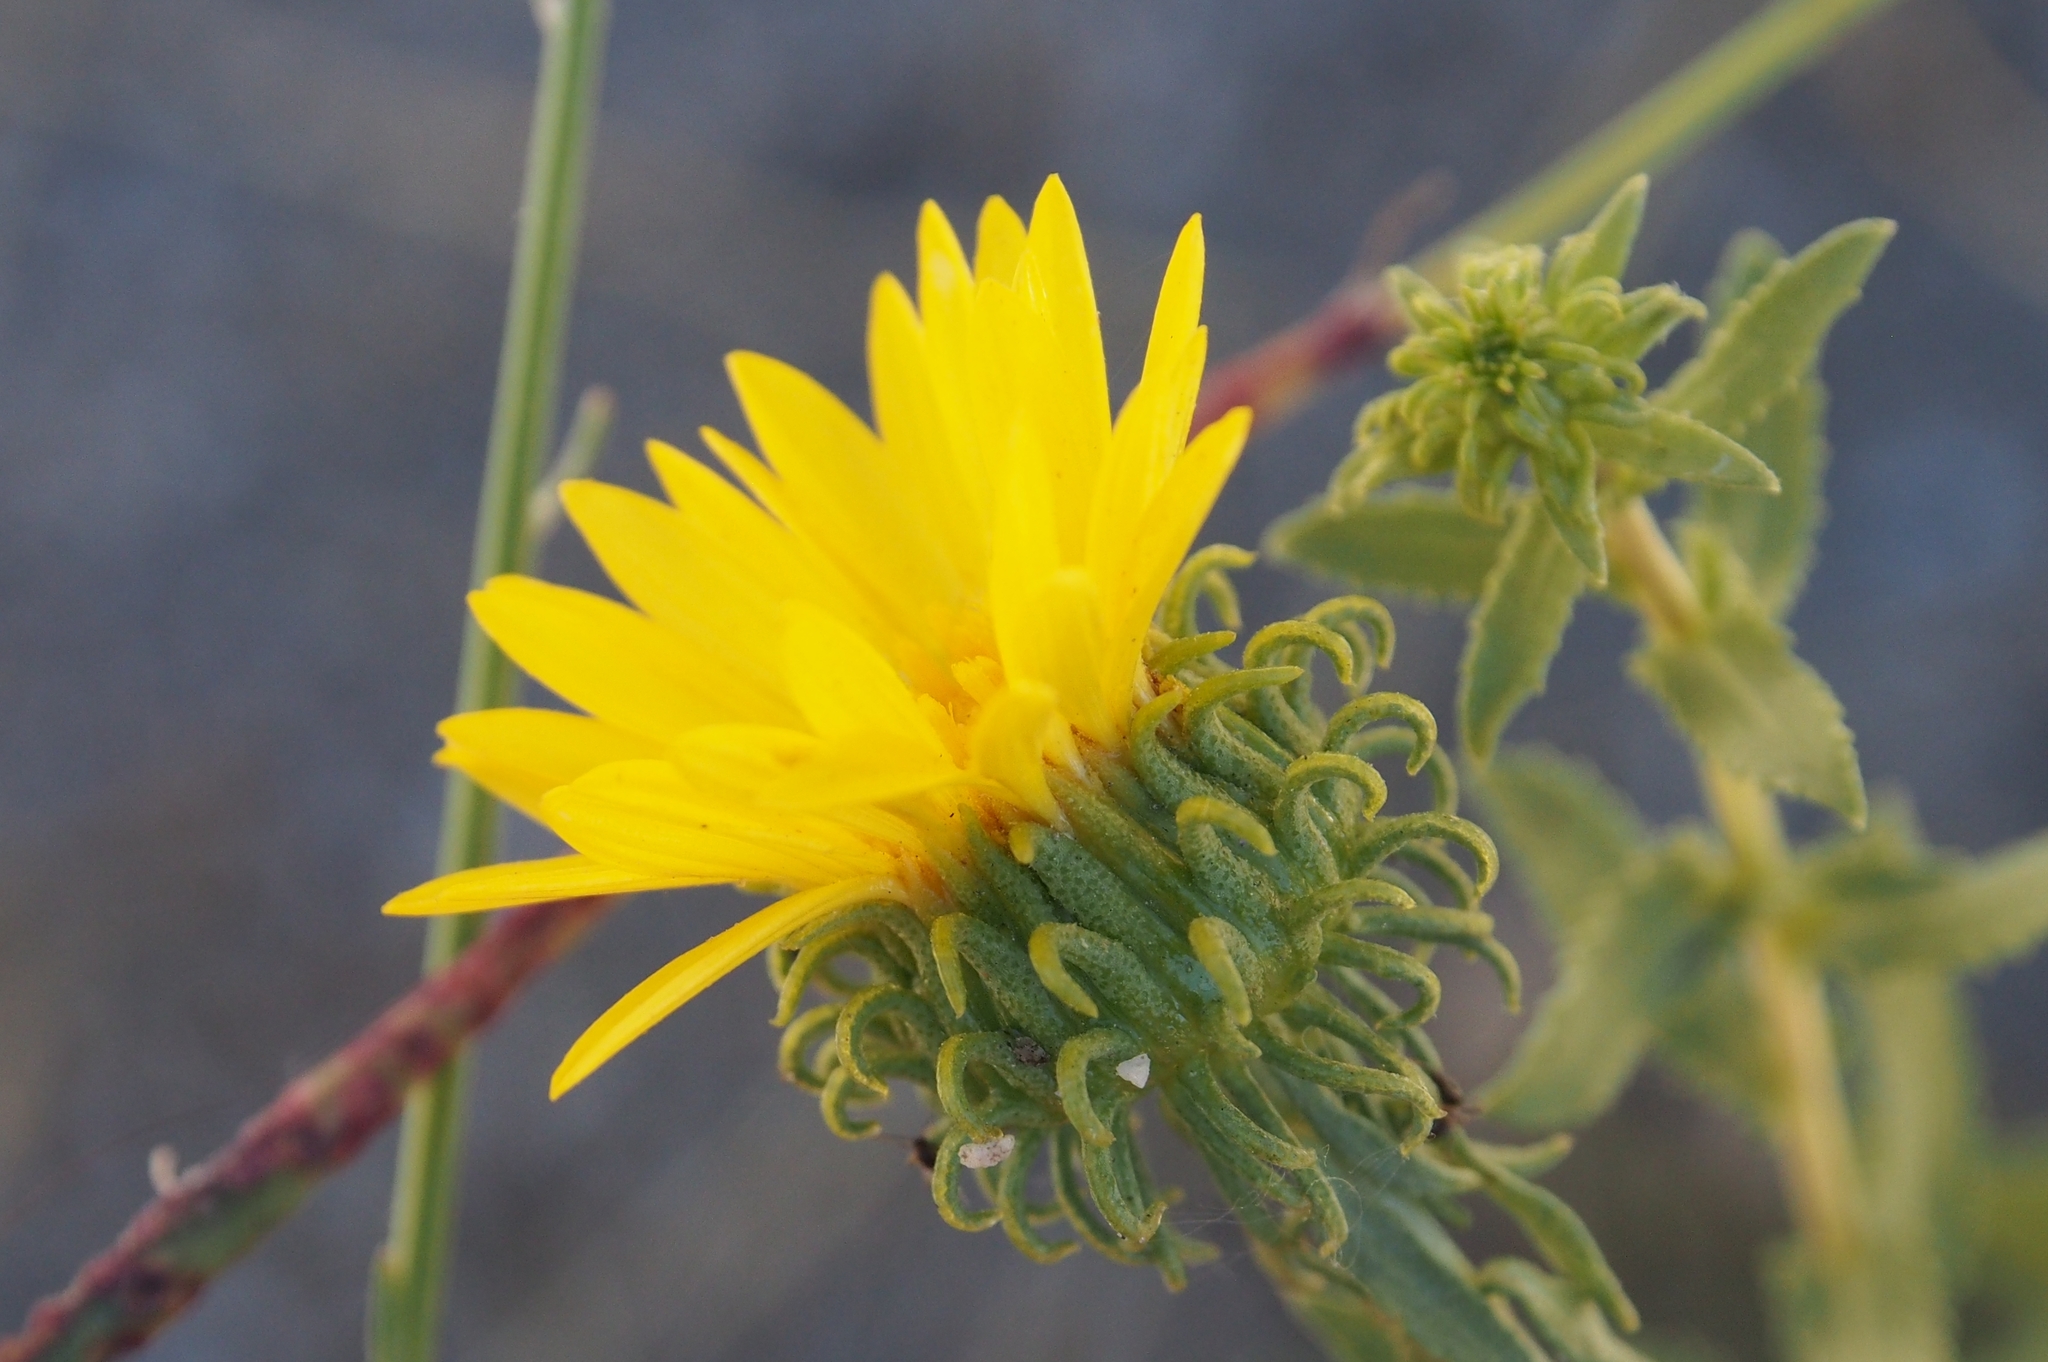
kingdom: Plantae
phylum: Tracheophyta
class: Magnoliopsida
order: Asterales
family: Asteraceae
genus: Grindelia
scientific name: Grindelia squarrosa
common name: Curly-cup gumweed
